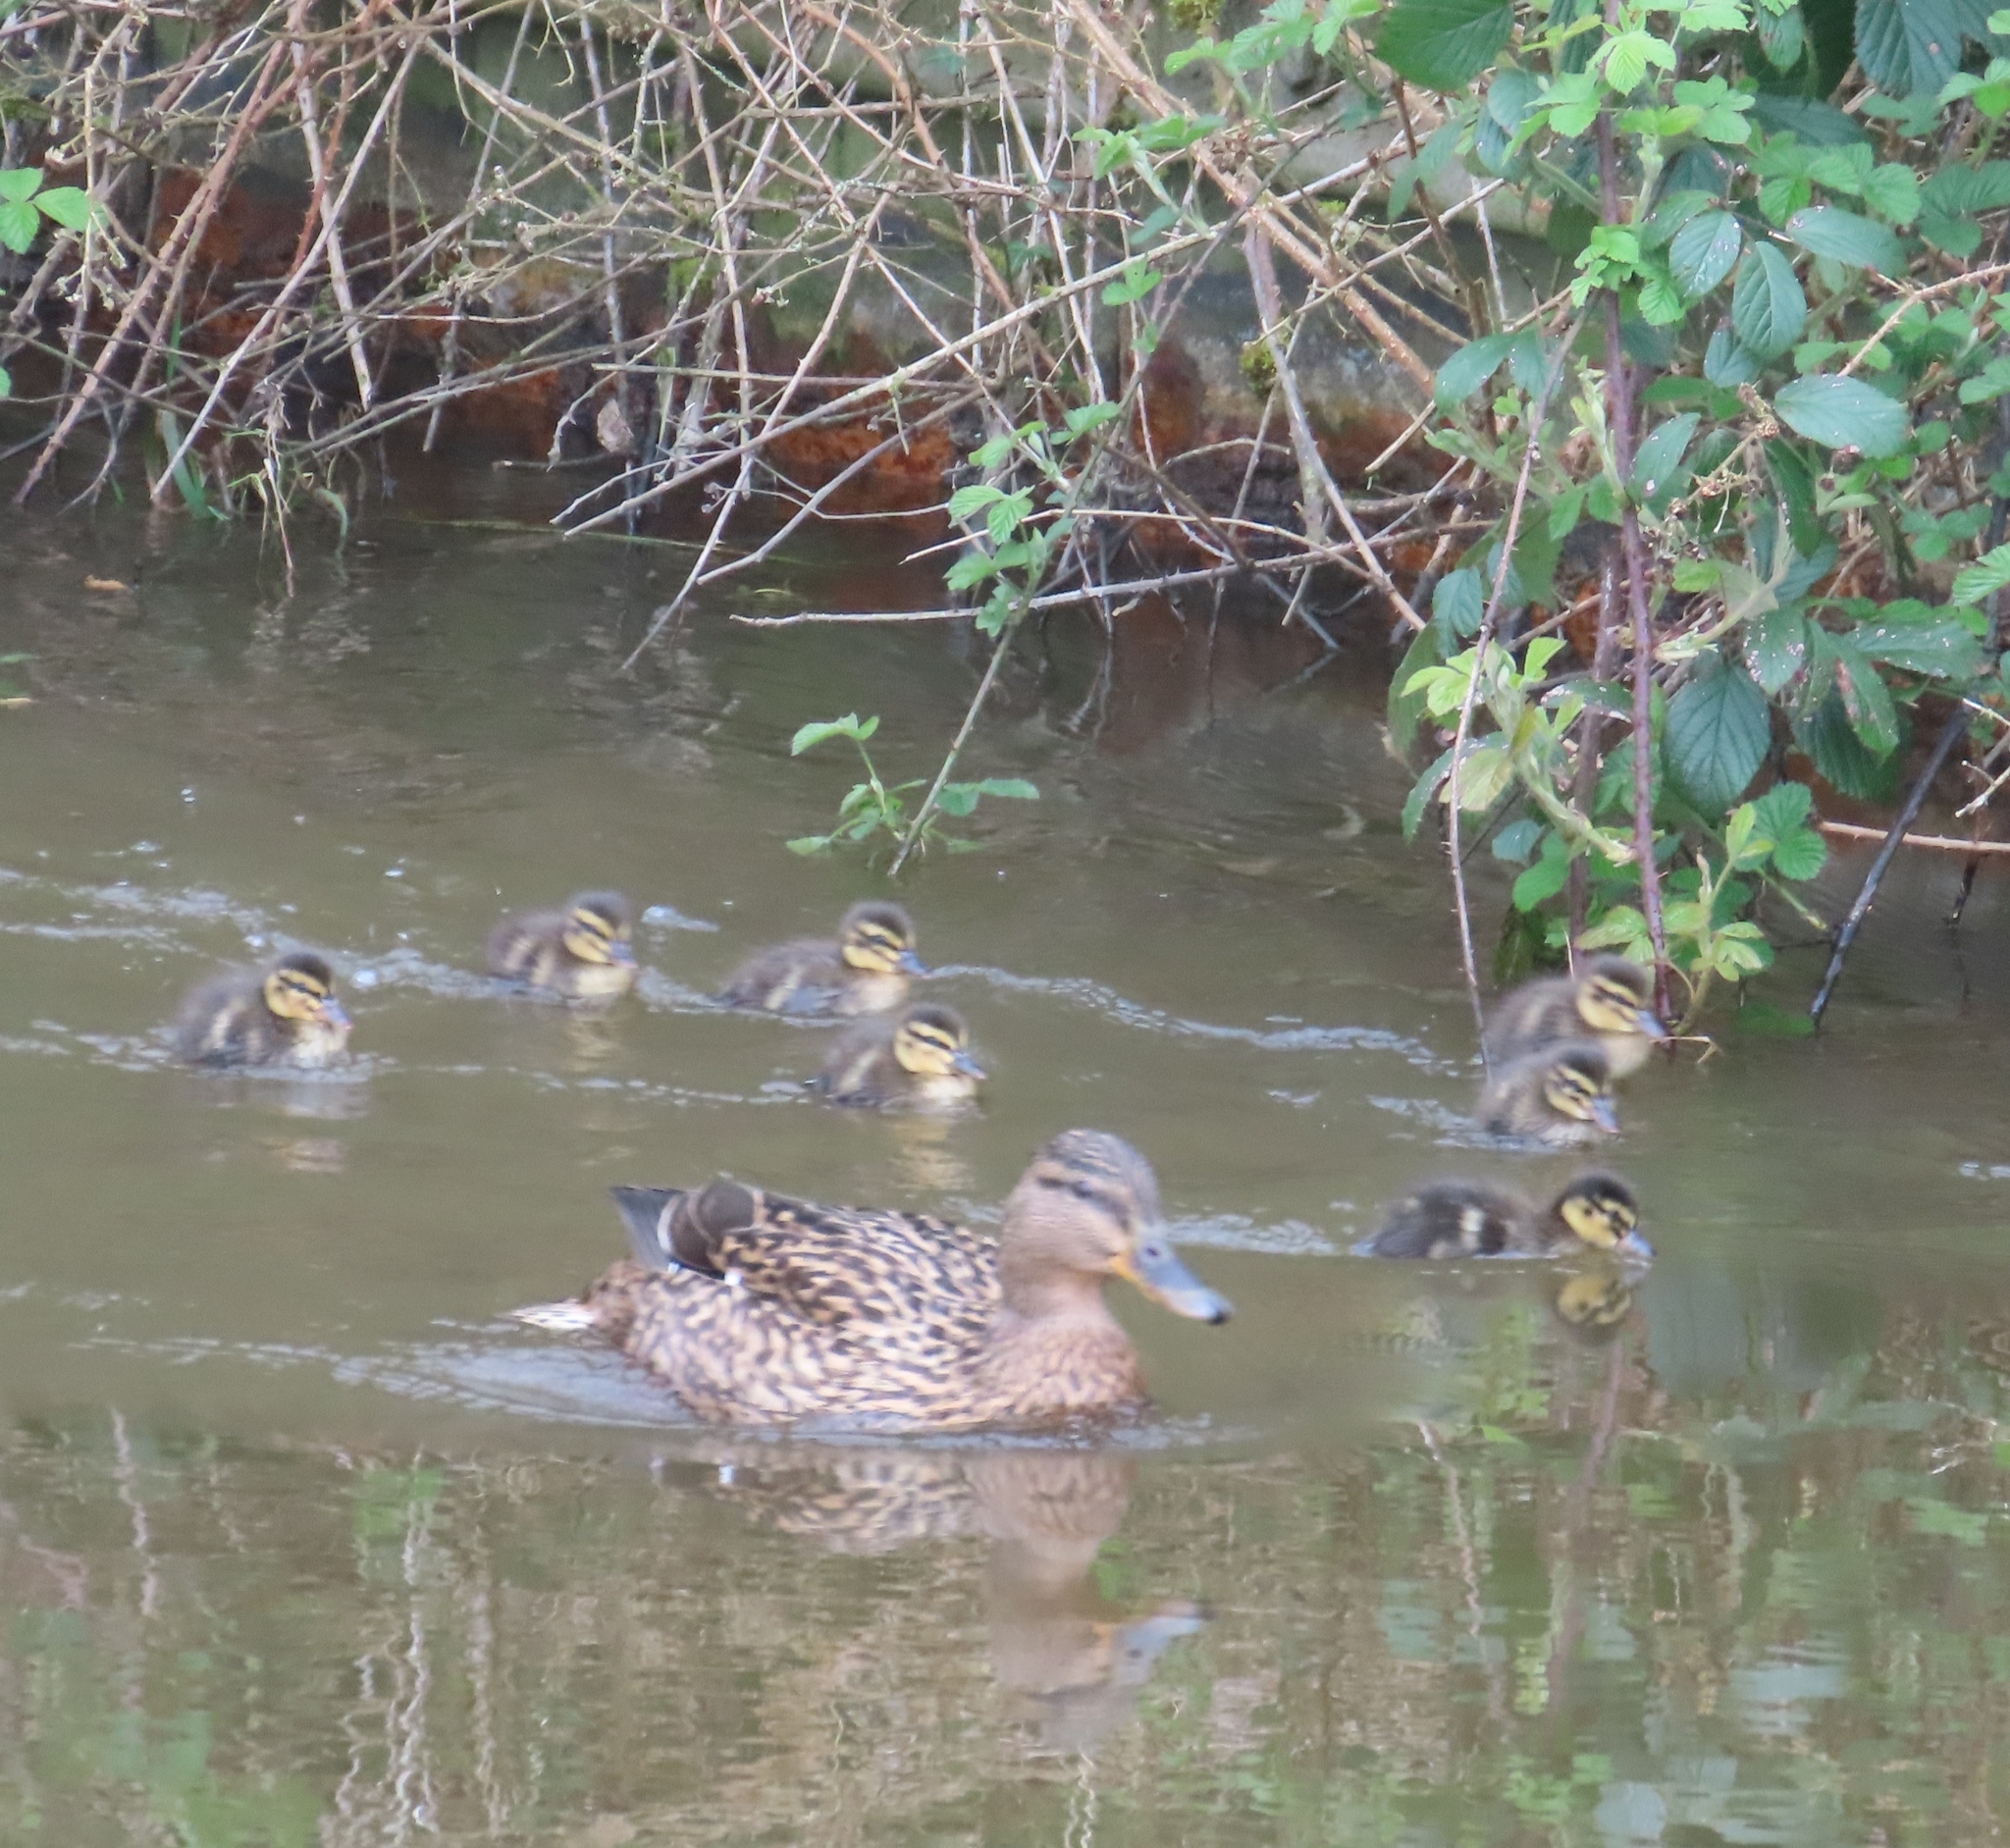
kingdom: Animalia
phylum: Chordata
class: Aves
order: Anseriformes
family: Anatidae
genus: Anas
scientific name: Anas platyrhynchos
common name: Mallard
